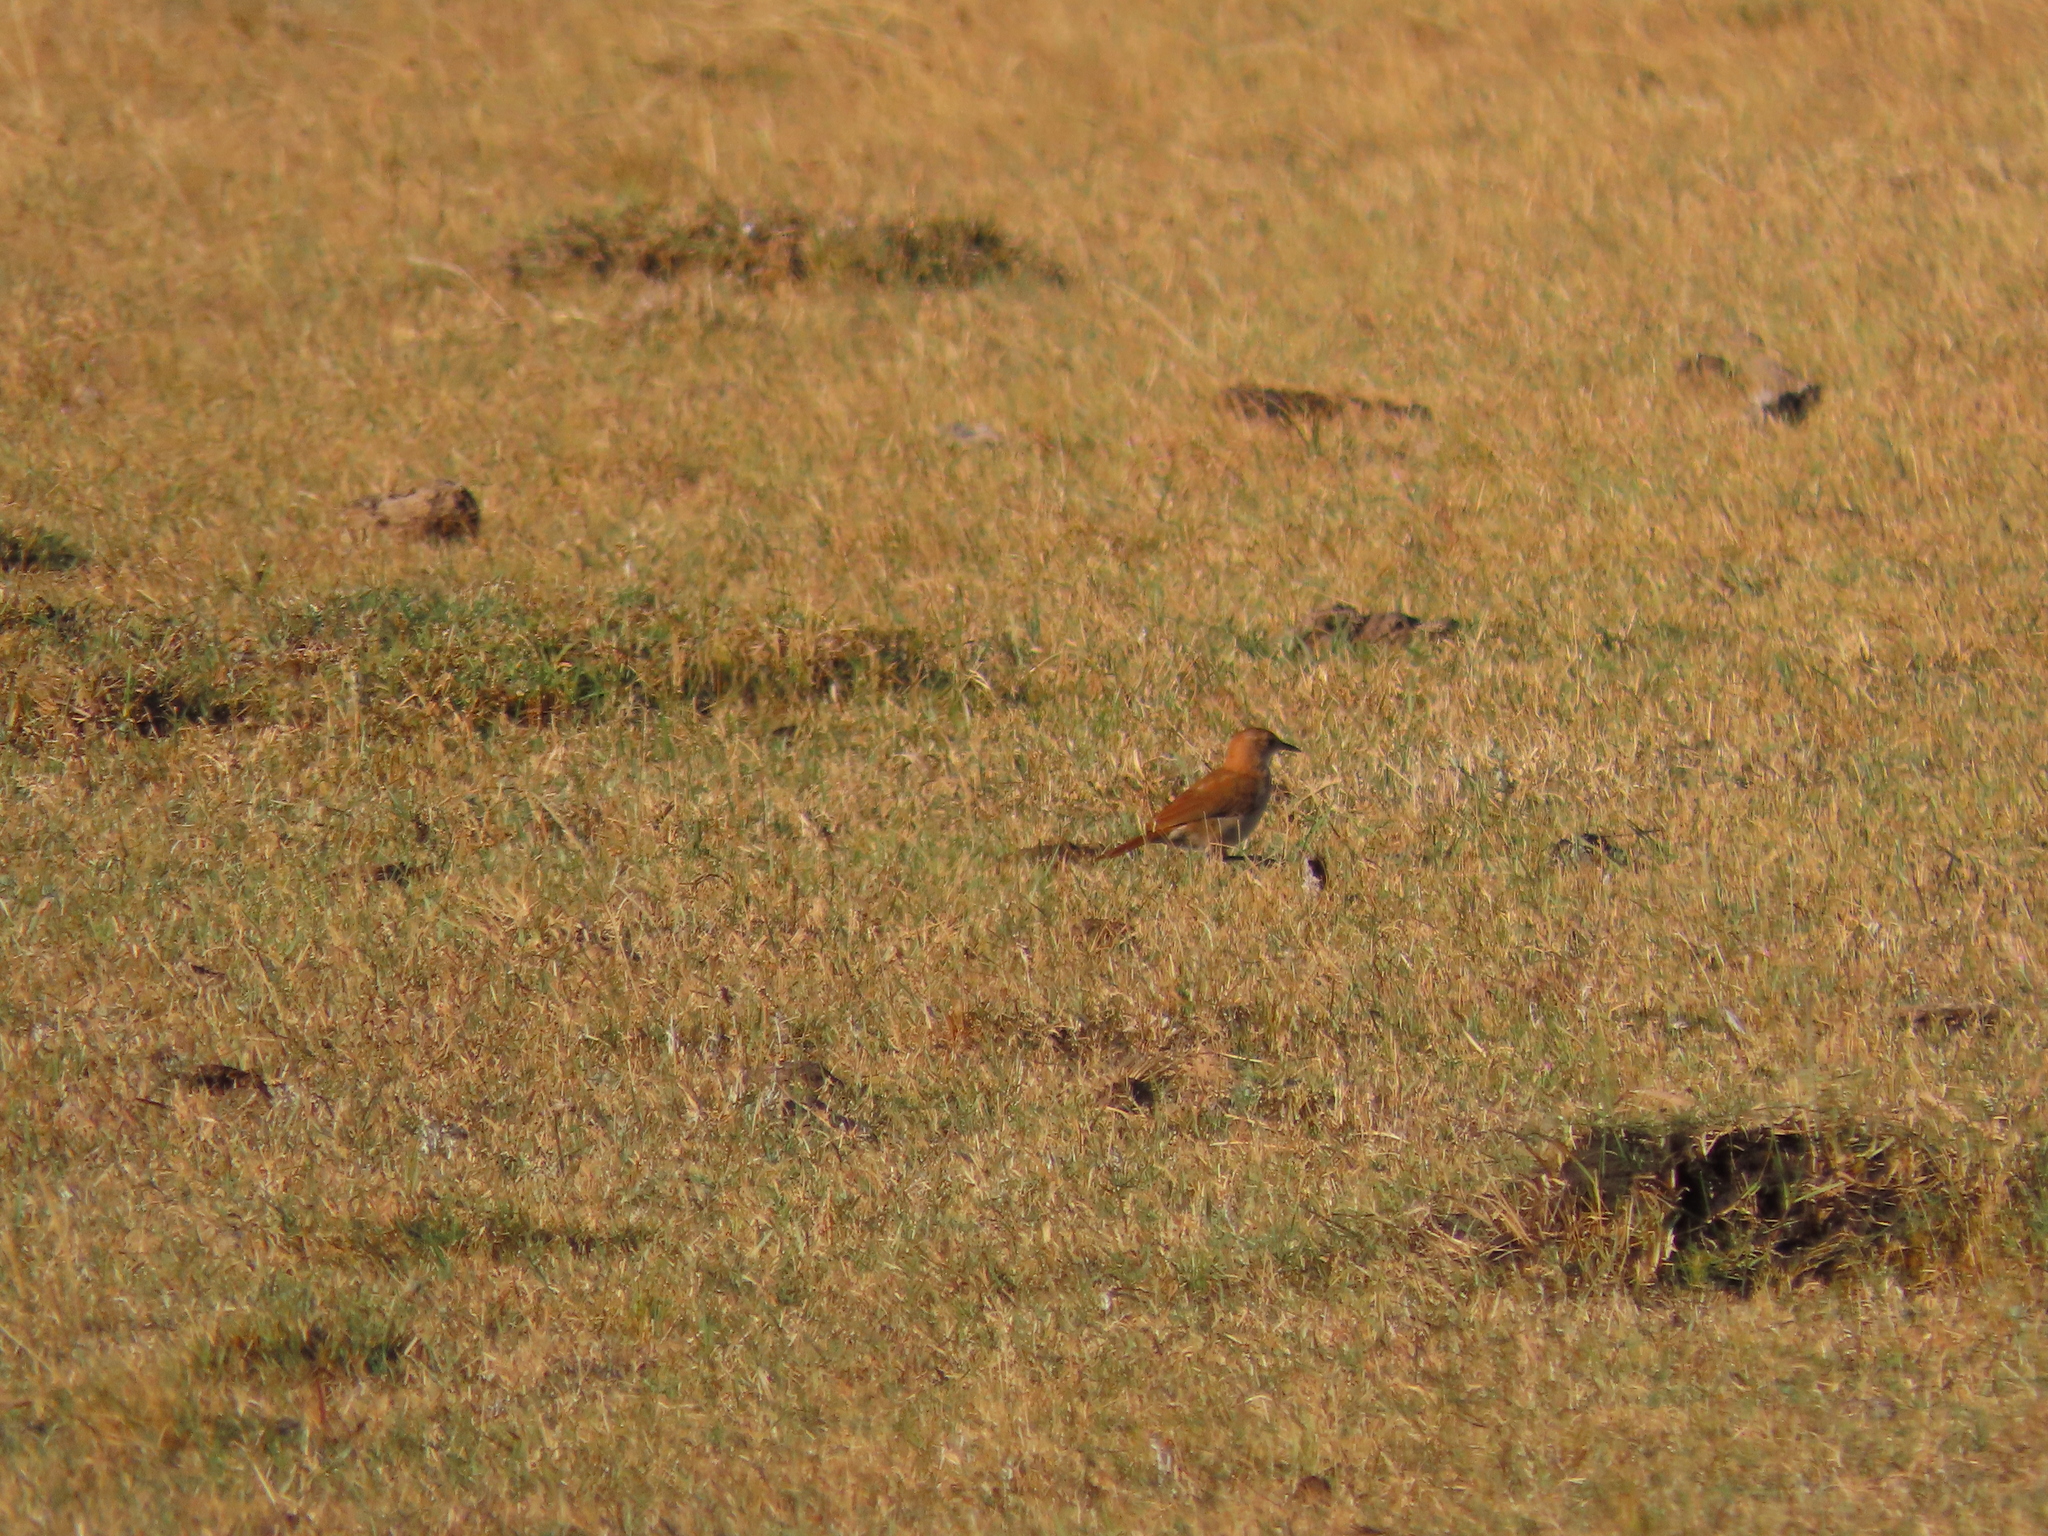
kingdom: Animalia
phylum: Chordata
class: Aves
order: Passeriformes
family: Furnariidae
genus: Furnarius
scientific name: Furnarius rufus
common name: Rufous hornero
